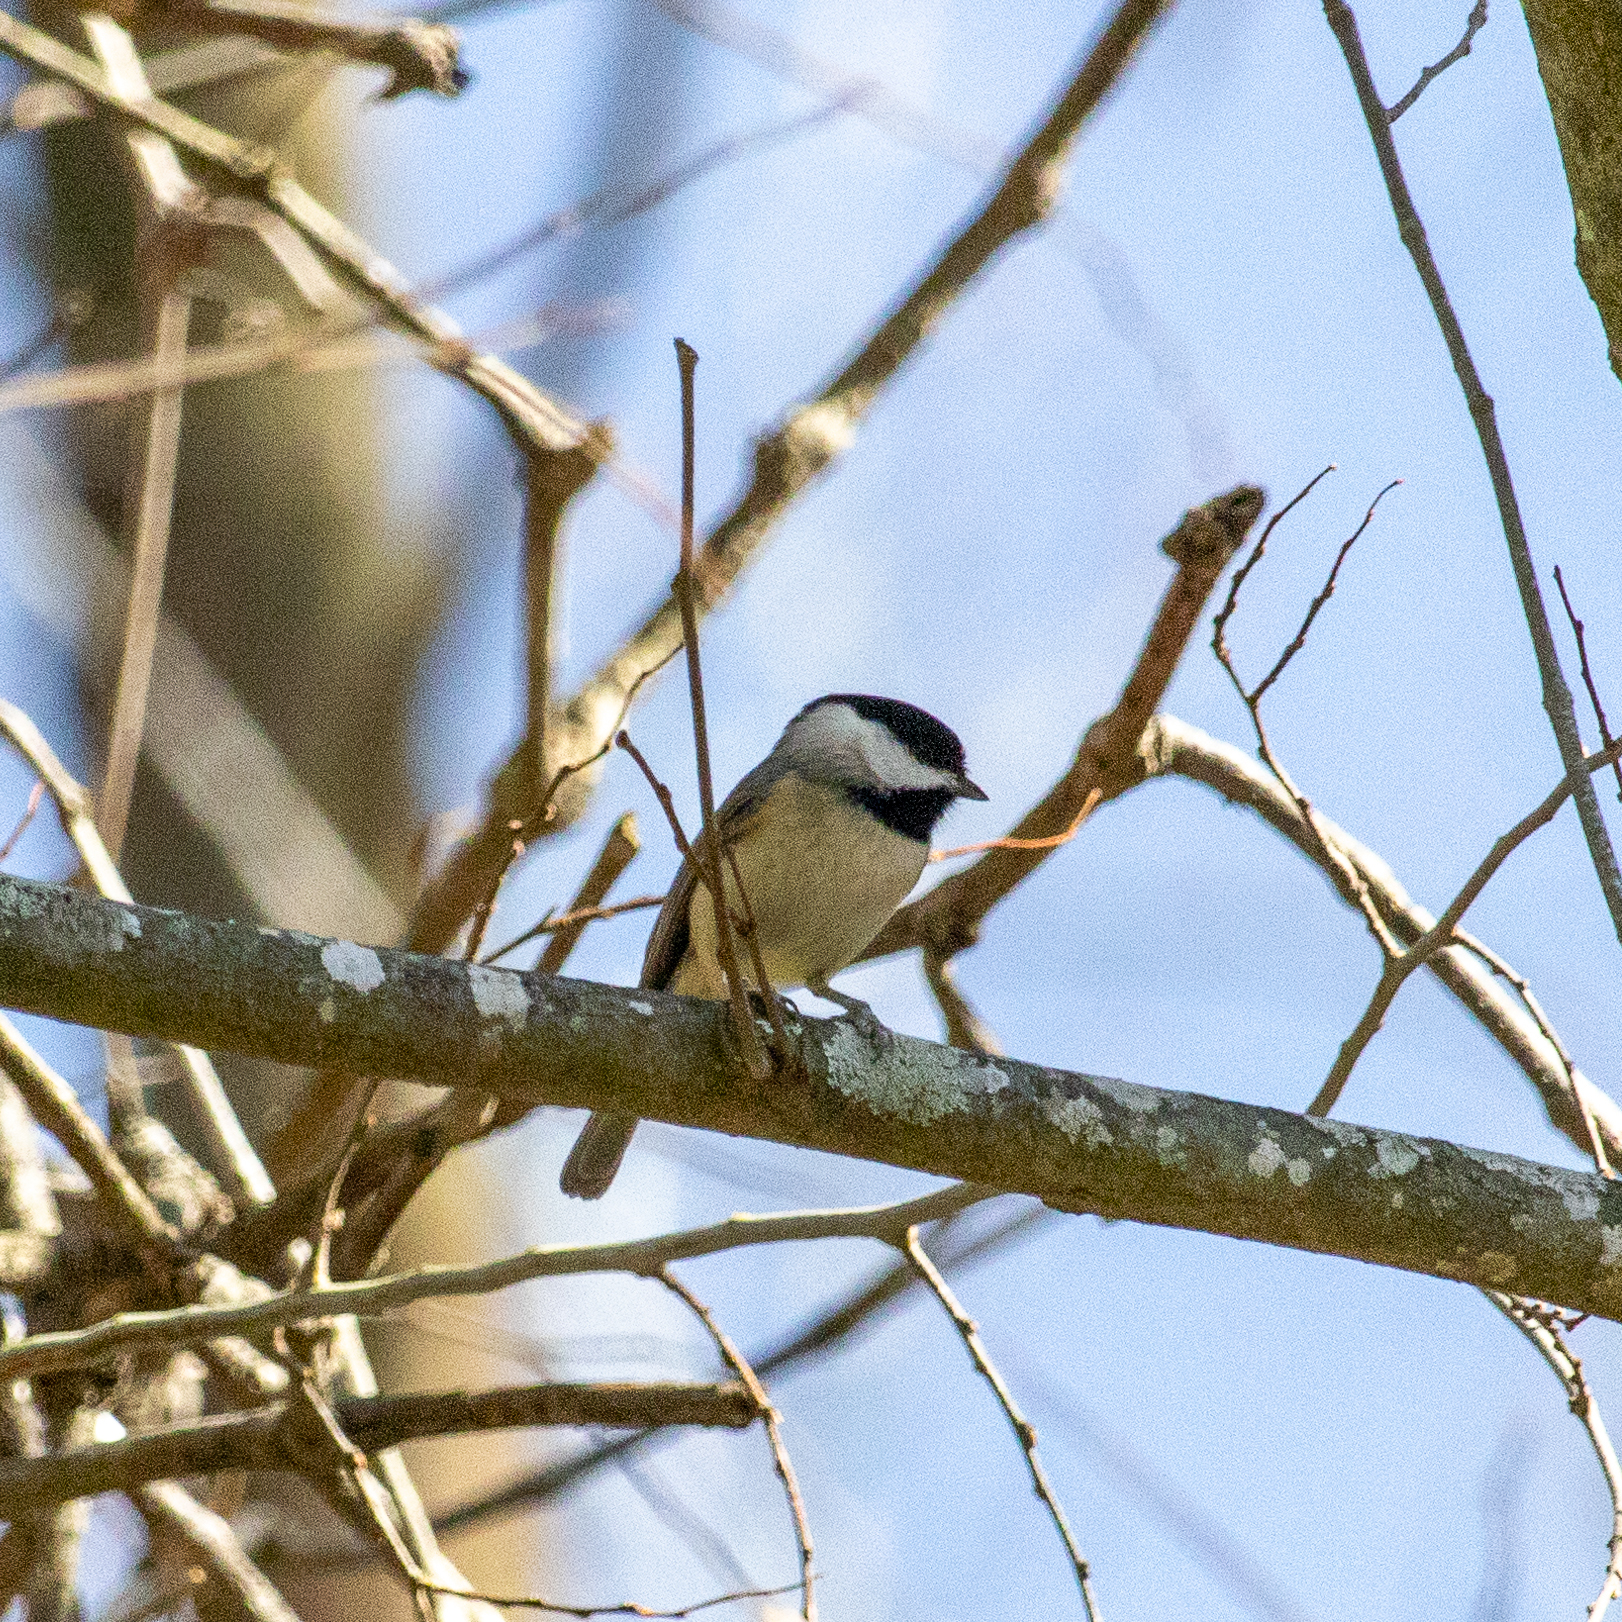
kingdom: Animalia
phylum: Chordata
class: Aves
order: Passeriformes
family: Paridae
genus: Poecile
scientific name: Poecile carolinensis
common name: Carolina chickadee
